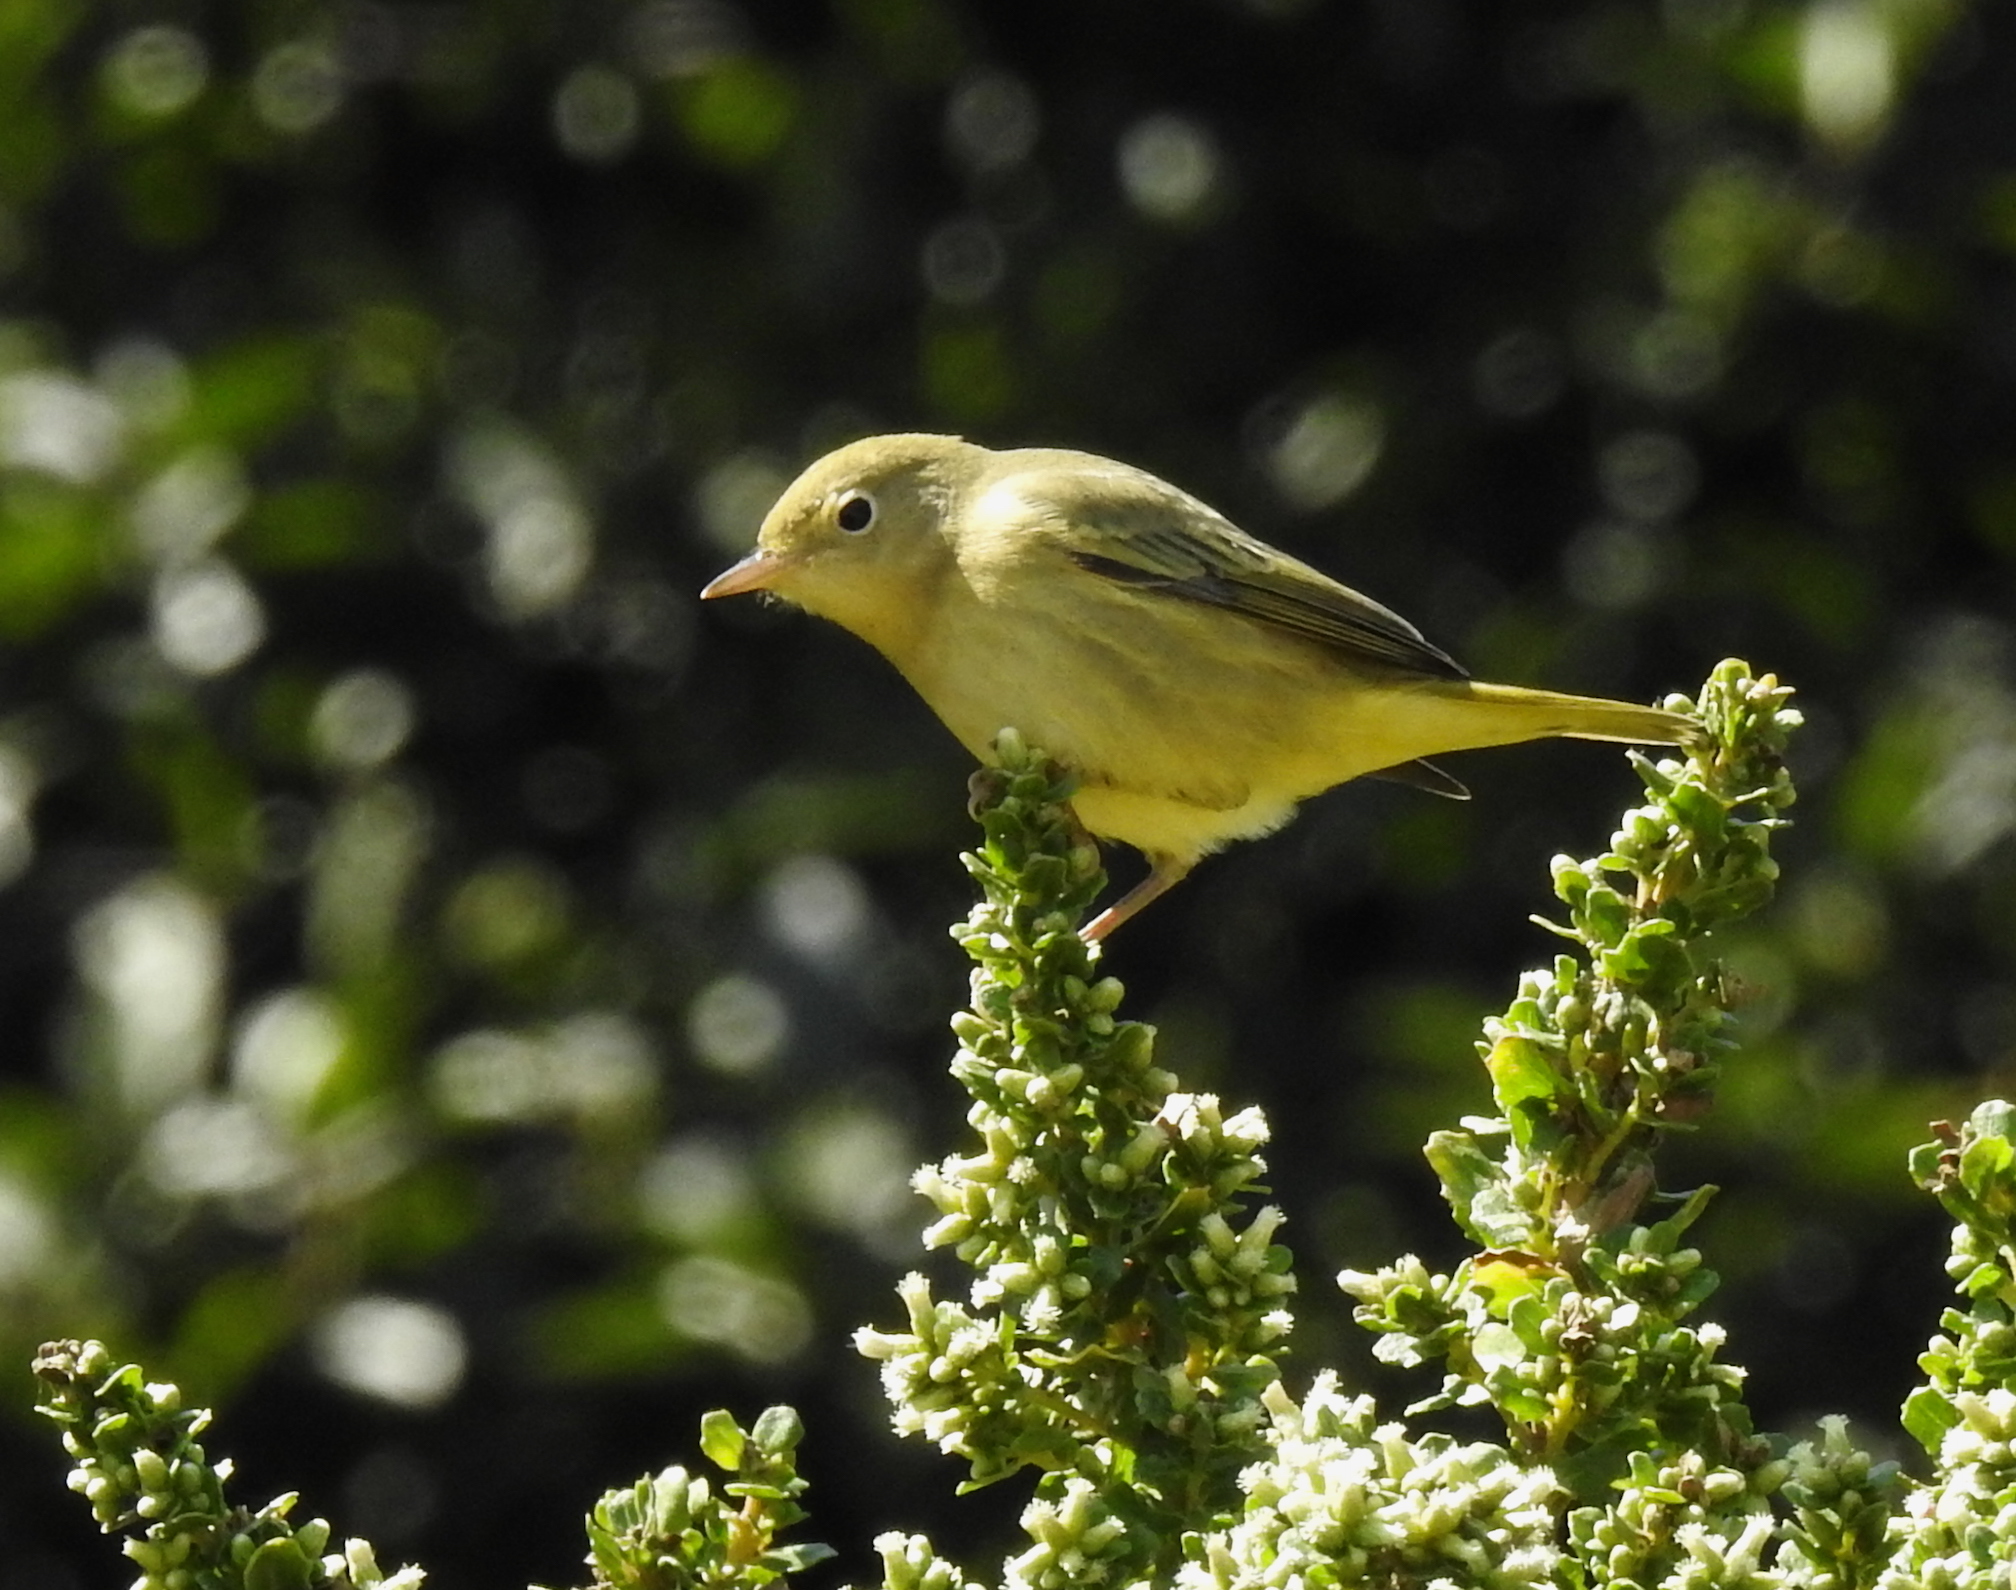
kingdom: Animalia
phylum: Chordata
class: Aves
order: Passeriformes
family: Parulidae
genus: Setophaga
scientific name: Setophaga petechia
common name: Yellow warbler
